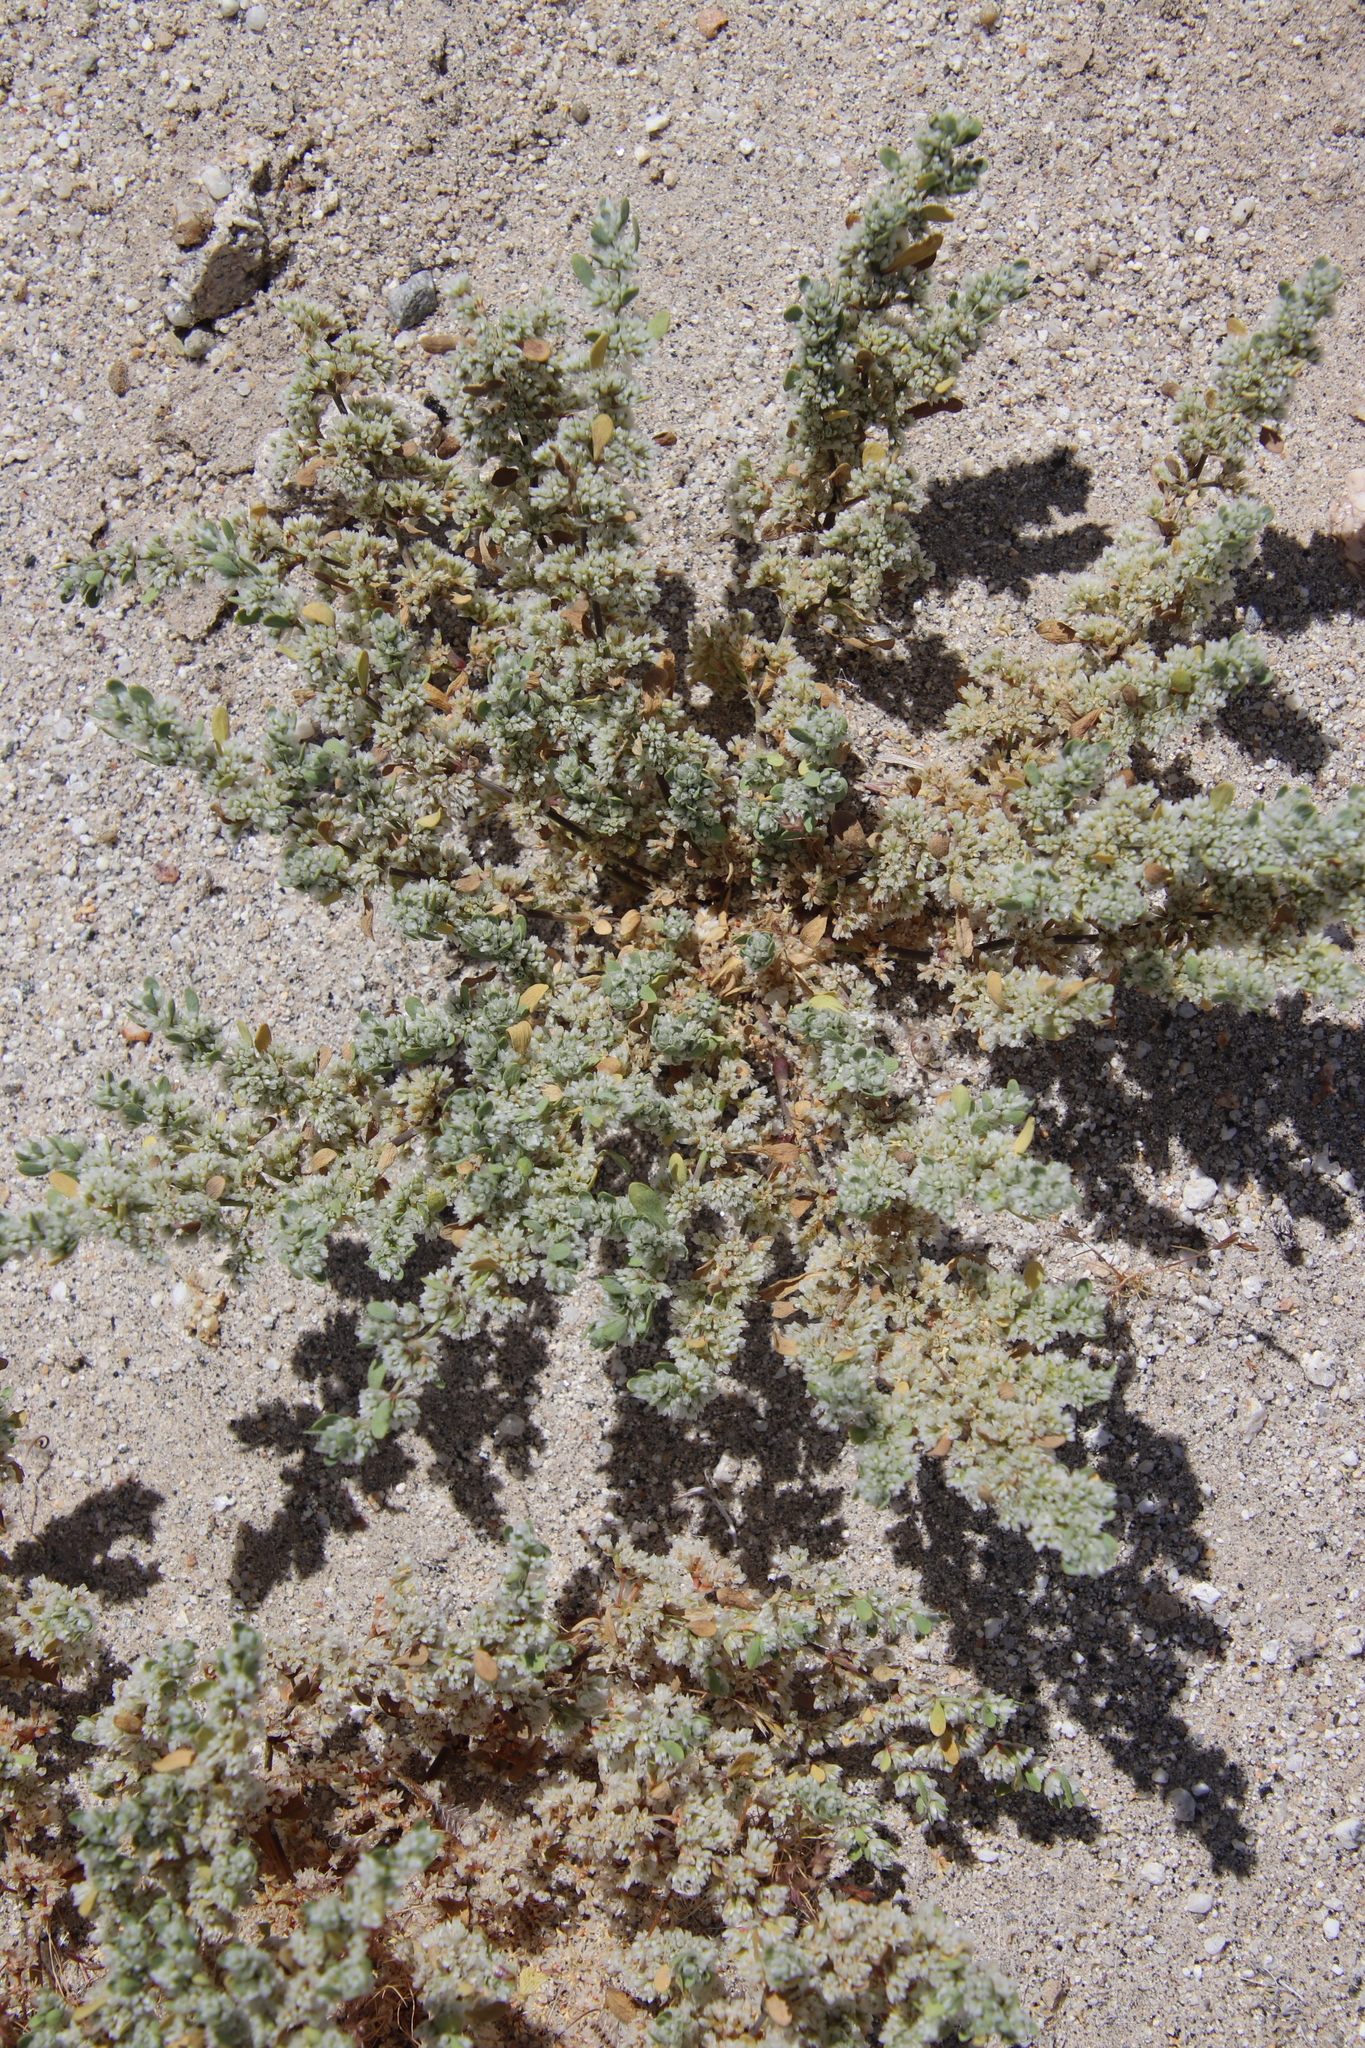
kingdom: Plantae
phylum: Tracheophyta
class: Magnoliopsida
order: Caryophyllales
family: Caryophyllaceae
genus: Achyronychia
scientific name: Achyronychia cooperi
